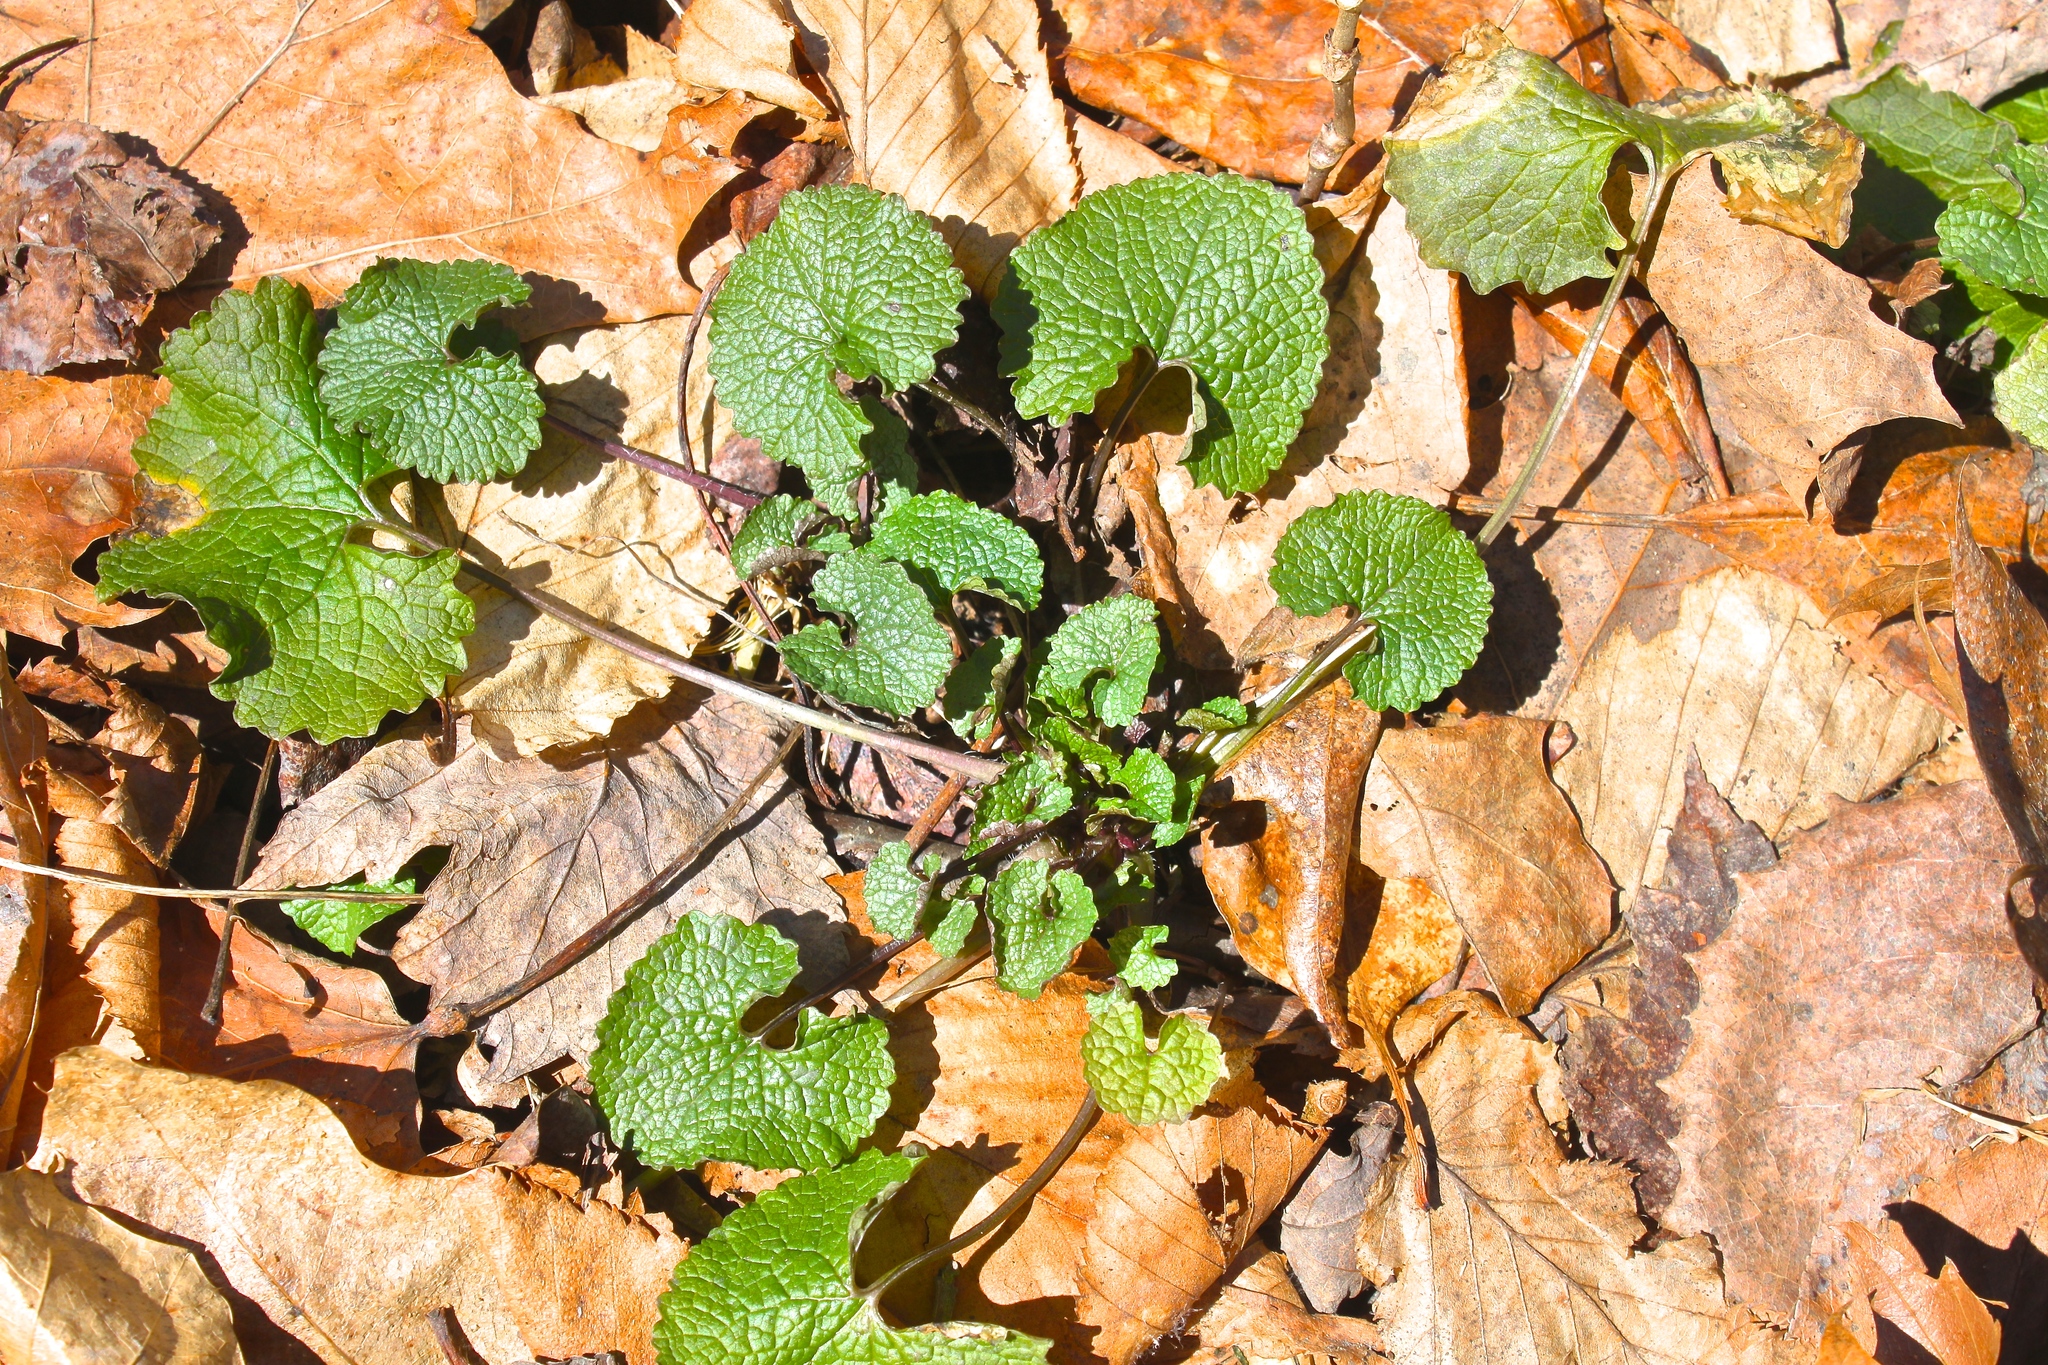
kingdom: Plantae
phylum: Tracheophyta
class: Magnoliopsida
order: Brassicales
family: Brassicaceae
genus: Alliaria
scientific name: Alliaria petiolata
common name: Garlic mustard
